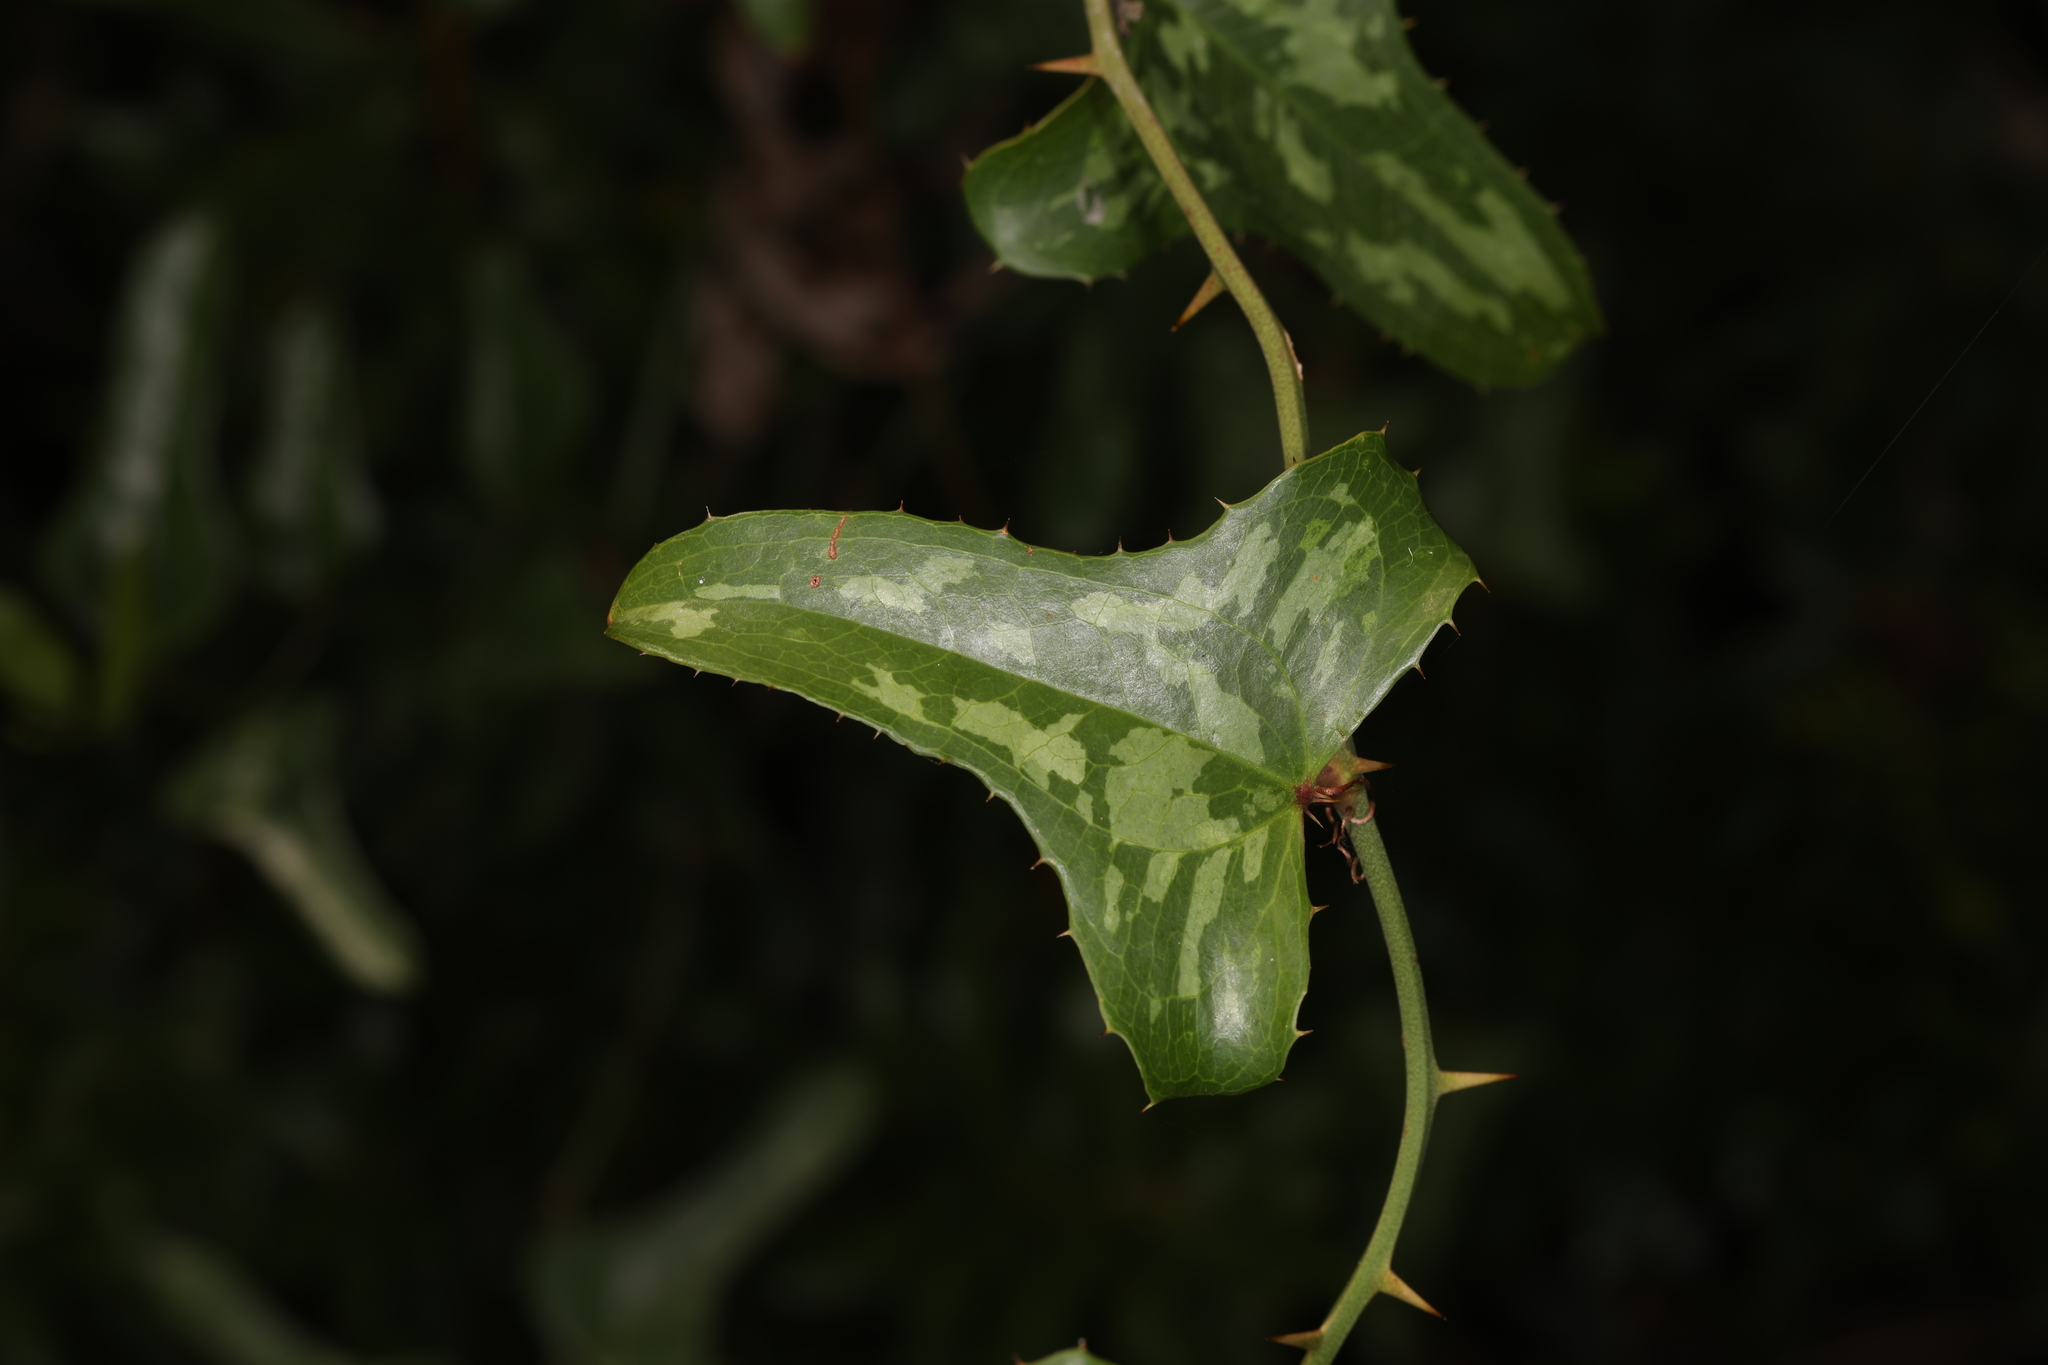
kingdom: Plantae
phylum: Tracheophyta
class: Liliopsida
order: Liliales
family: Smilacaceae
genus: Smilax
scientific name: Smilax bona-nox
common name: Catbrier
